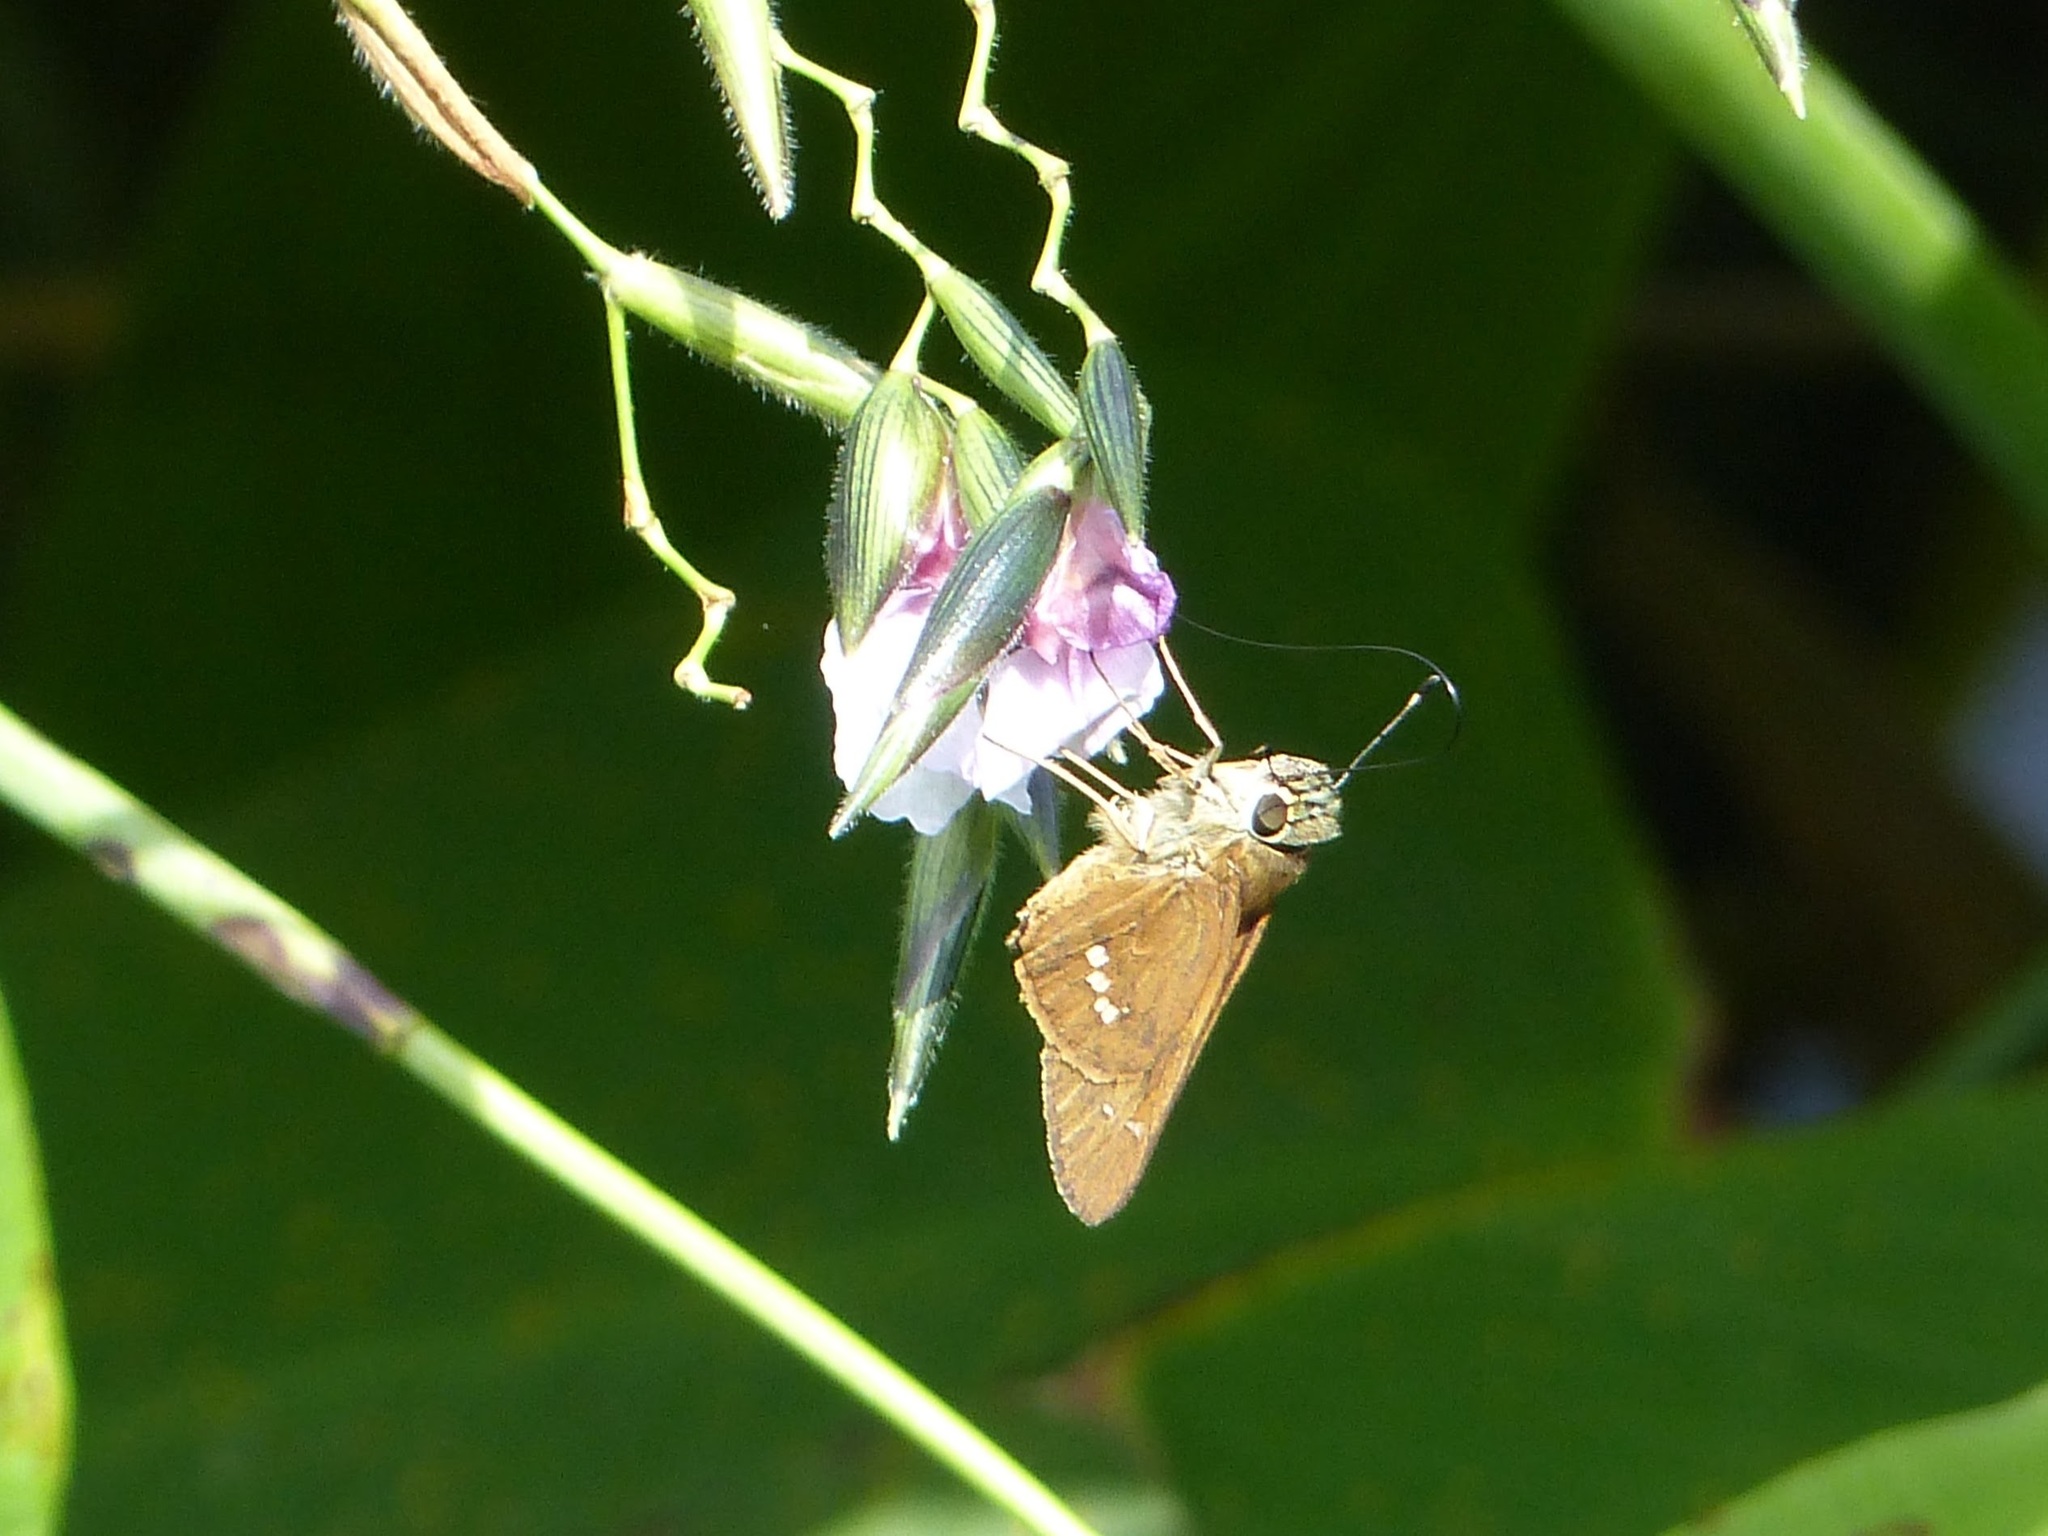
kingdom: Animalia
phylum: Arthropoda
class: Insecta
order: Lepidoptera
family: Hesperiidae
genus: Calpodes
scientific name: Calpodes ethlius
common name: Brazilian skipper
